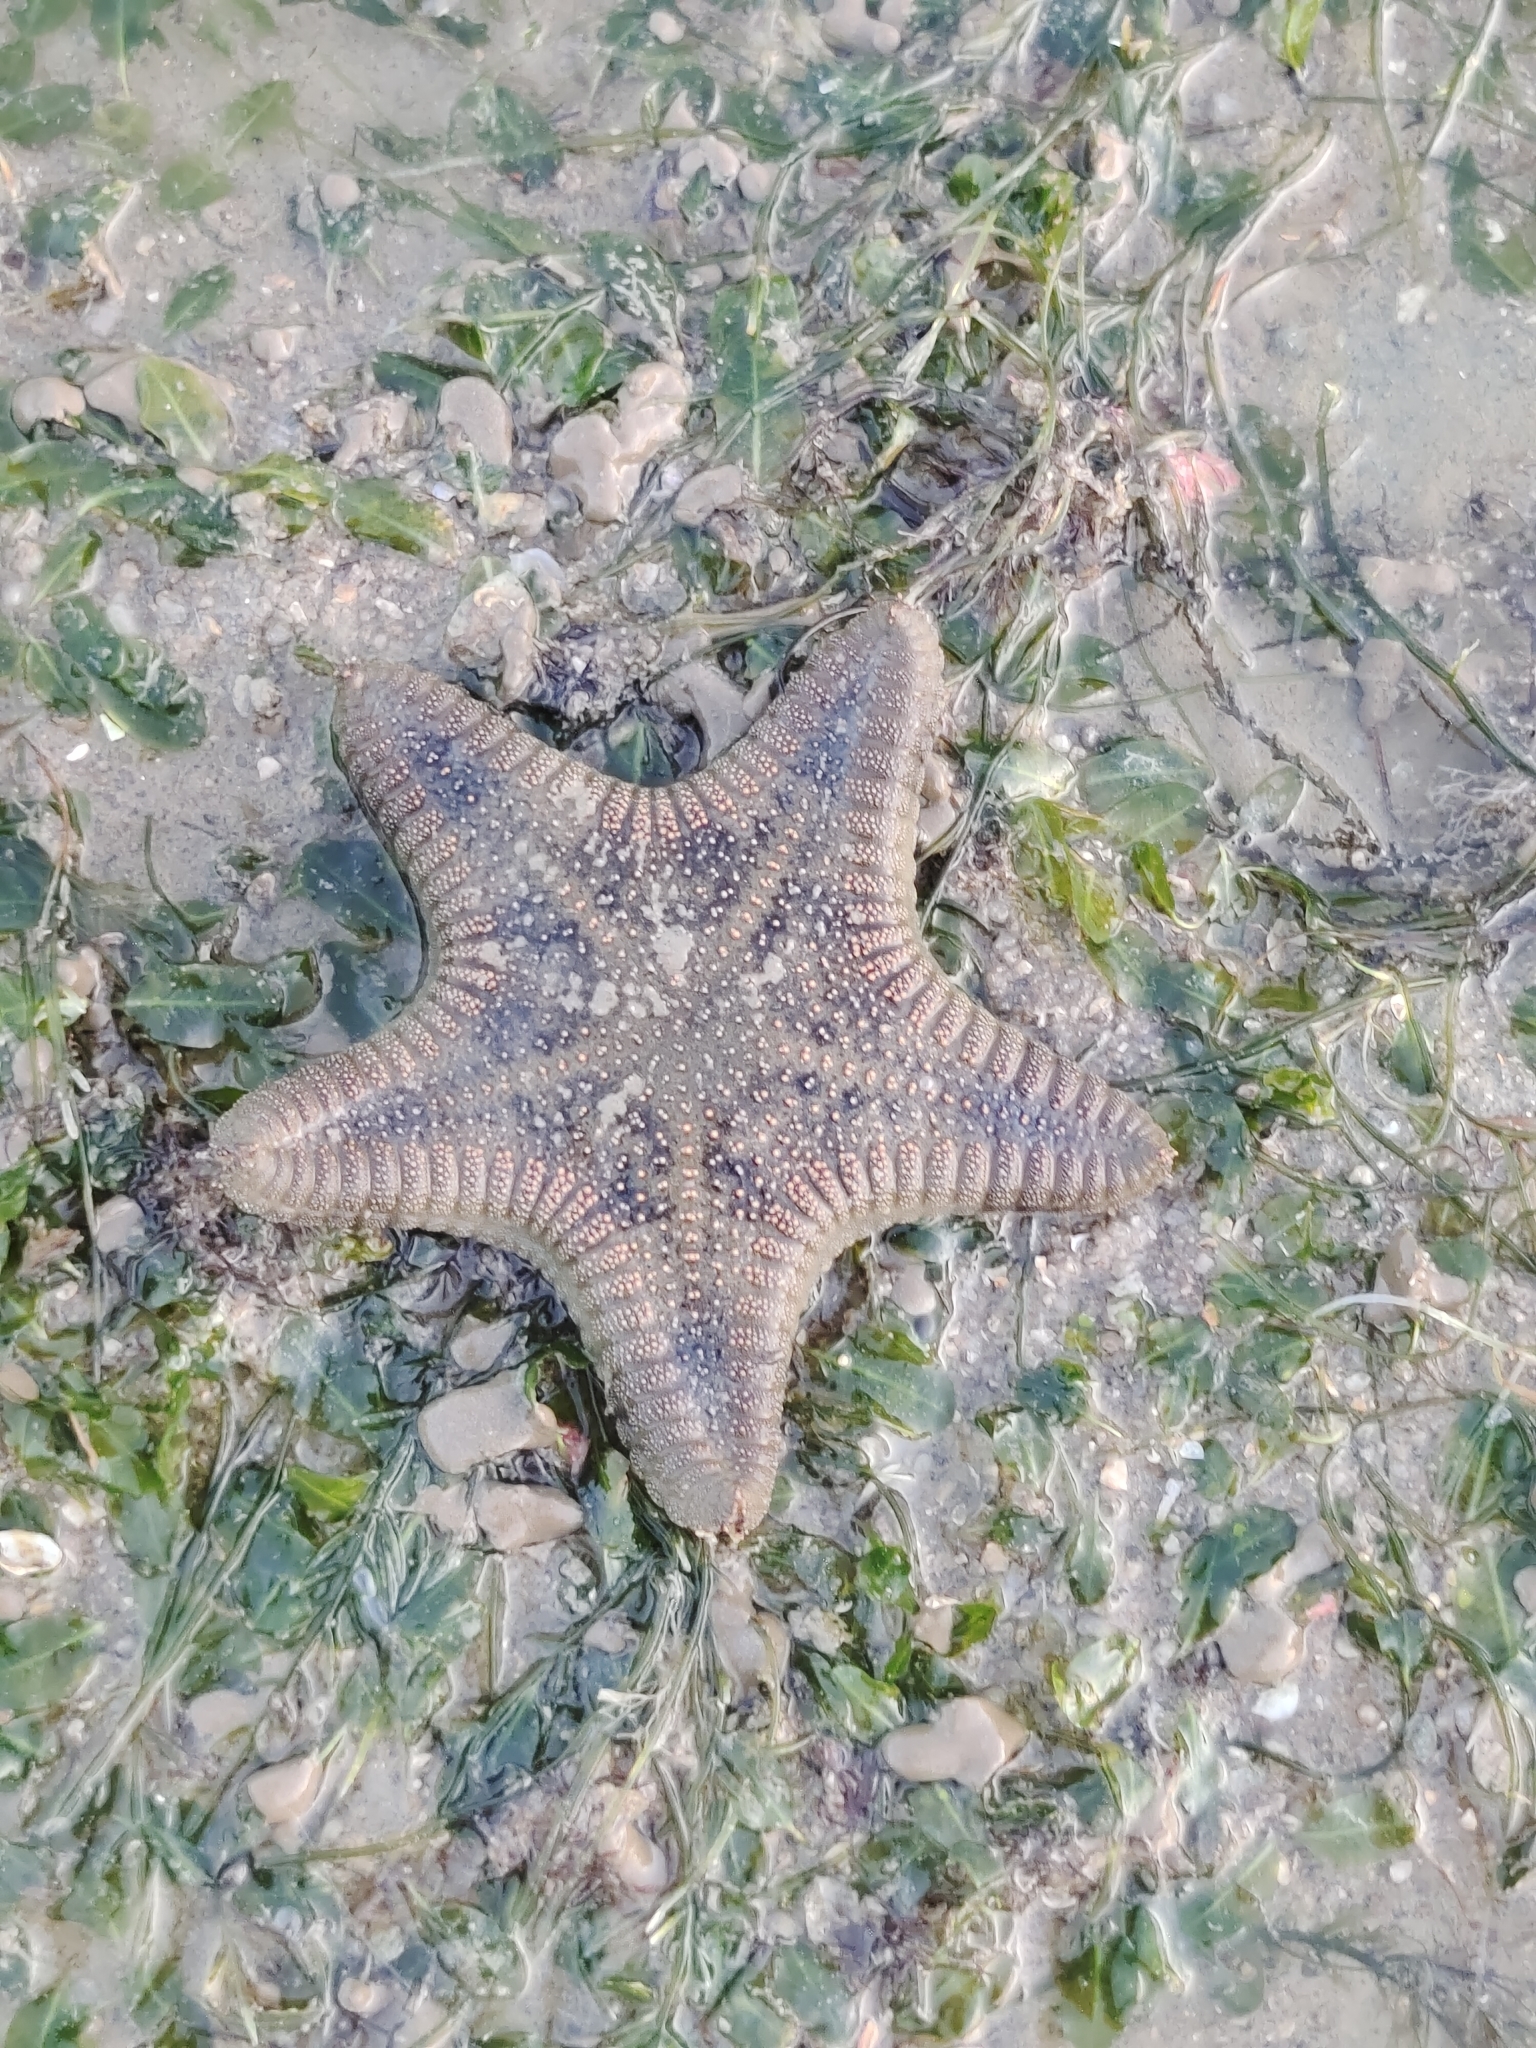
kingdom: Animalia
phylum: Echinodermata
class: Asteroidea
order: Valvatida
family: Goniasteridae
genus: Goniodiscaster
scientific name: Goniodiscaster scaber
